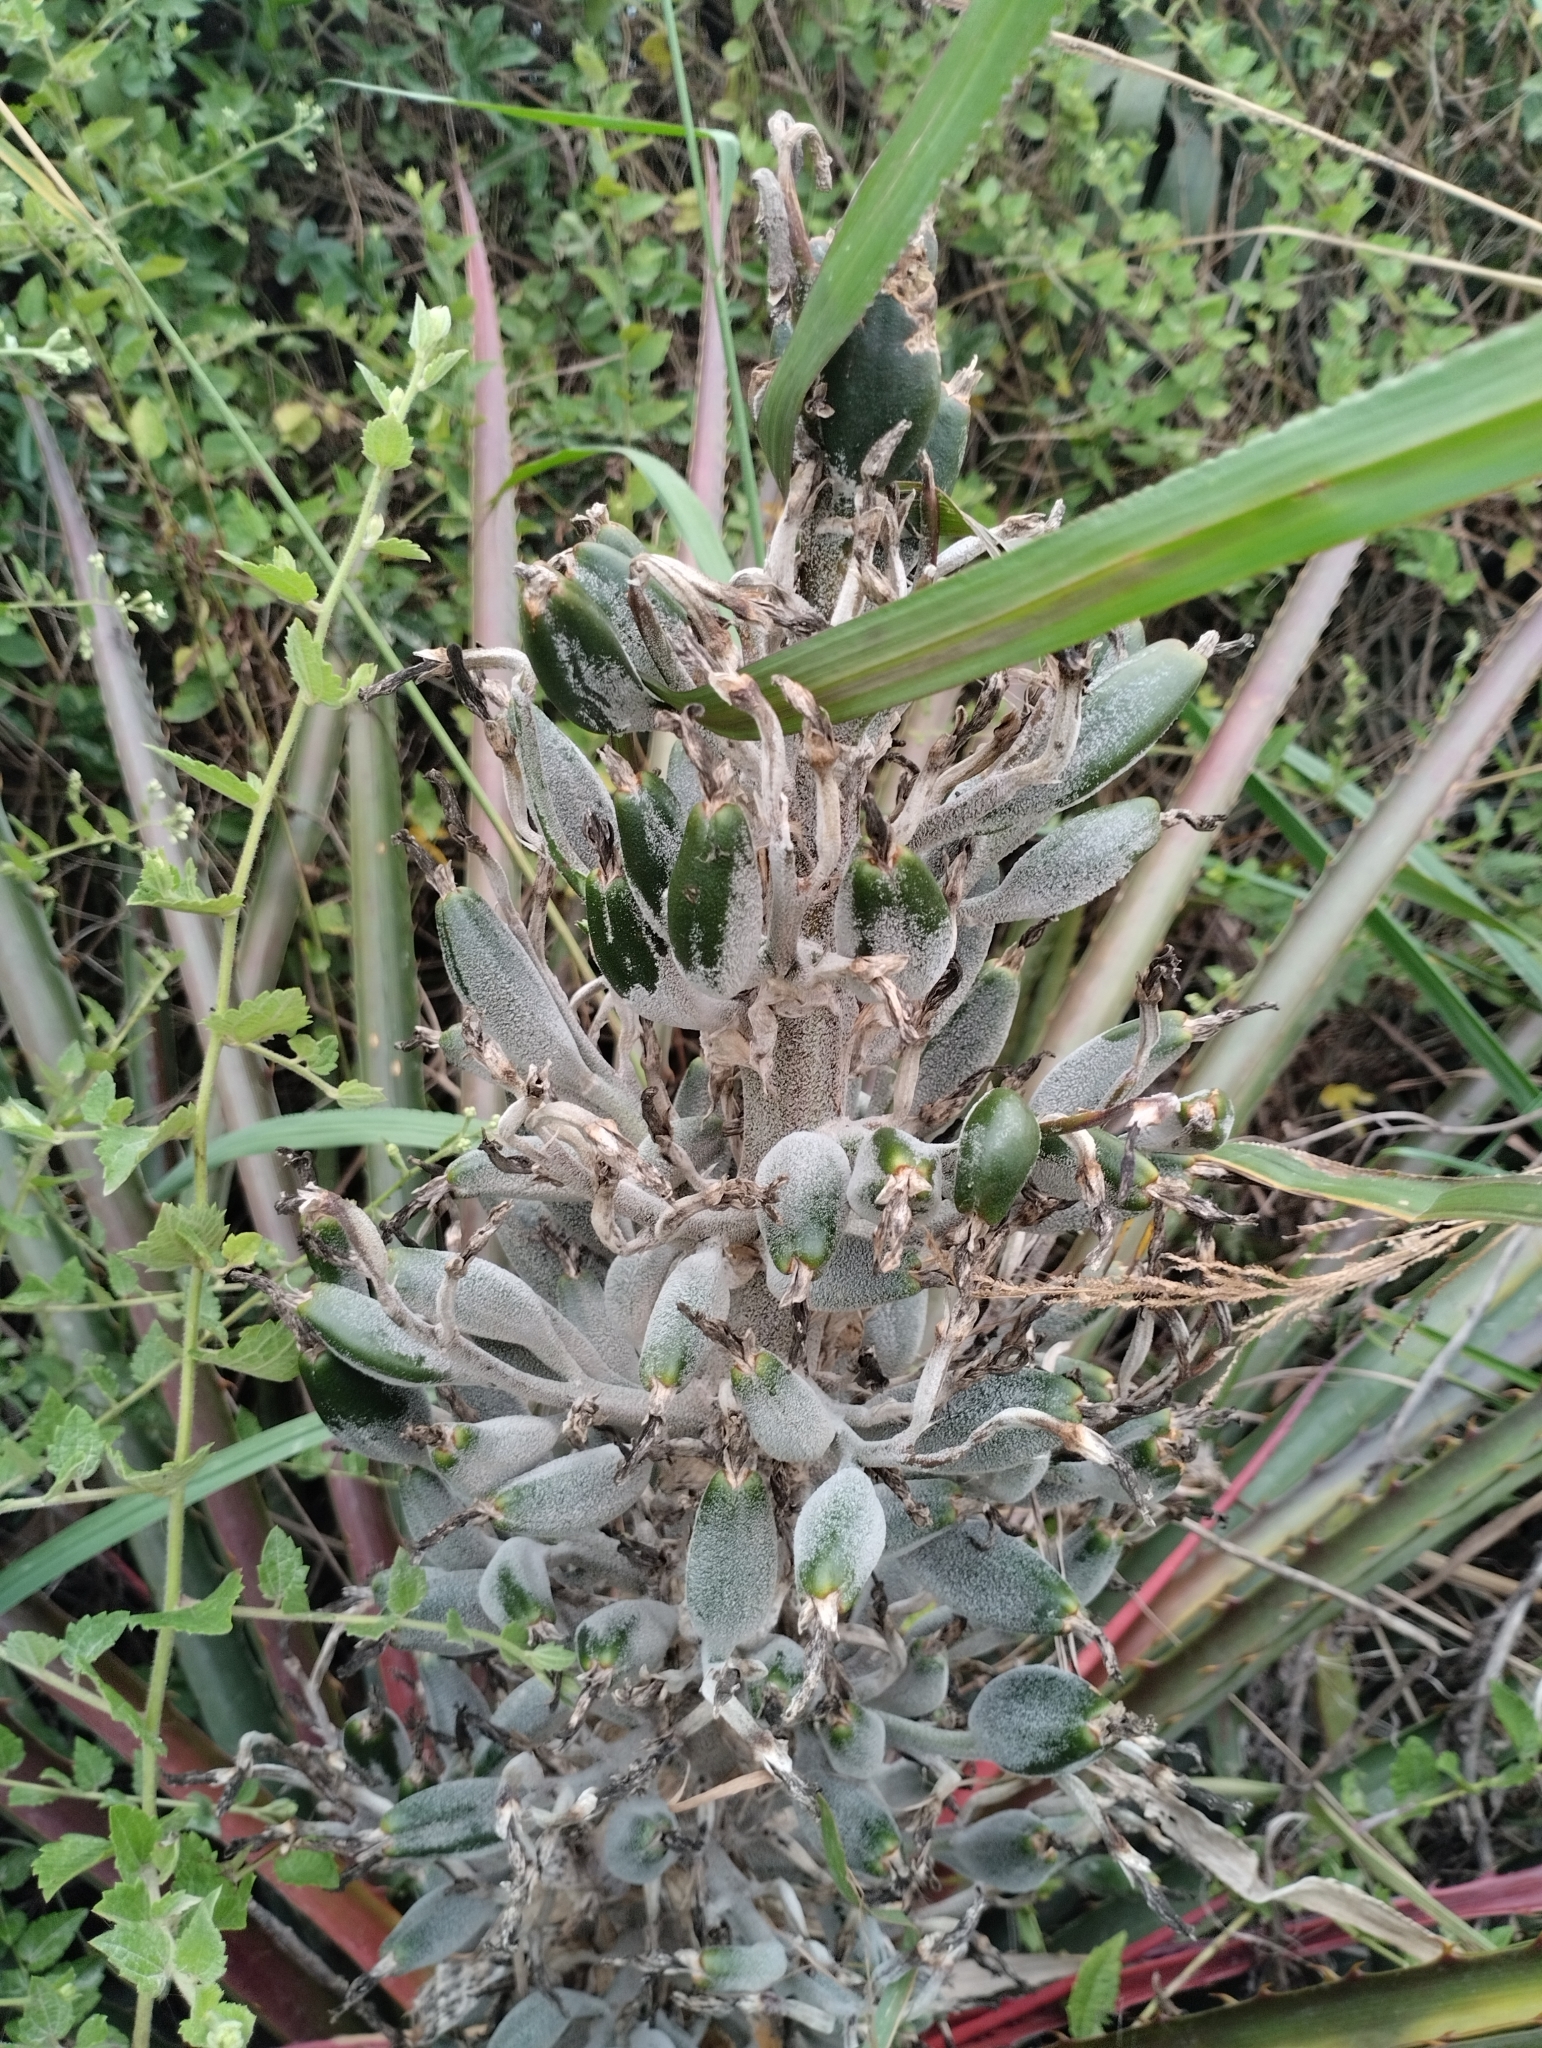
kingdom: Plantae
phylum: Tracheophyta
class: Liliopsida
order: Poales
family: Bromeliaceae
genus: Bromelia
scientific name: Bromelia antiacantha
